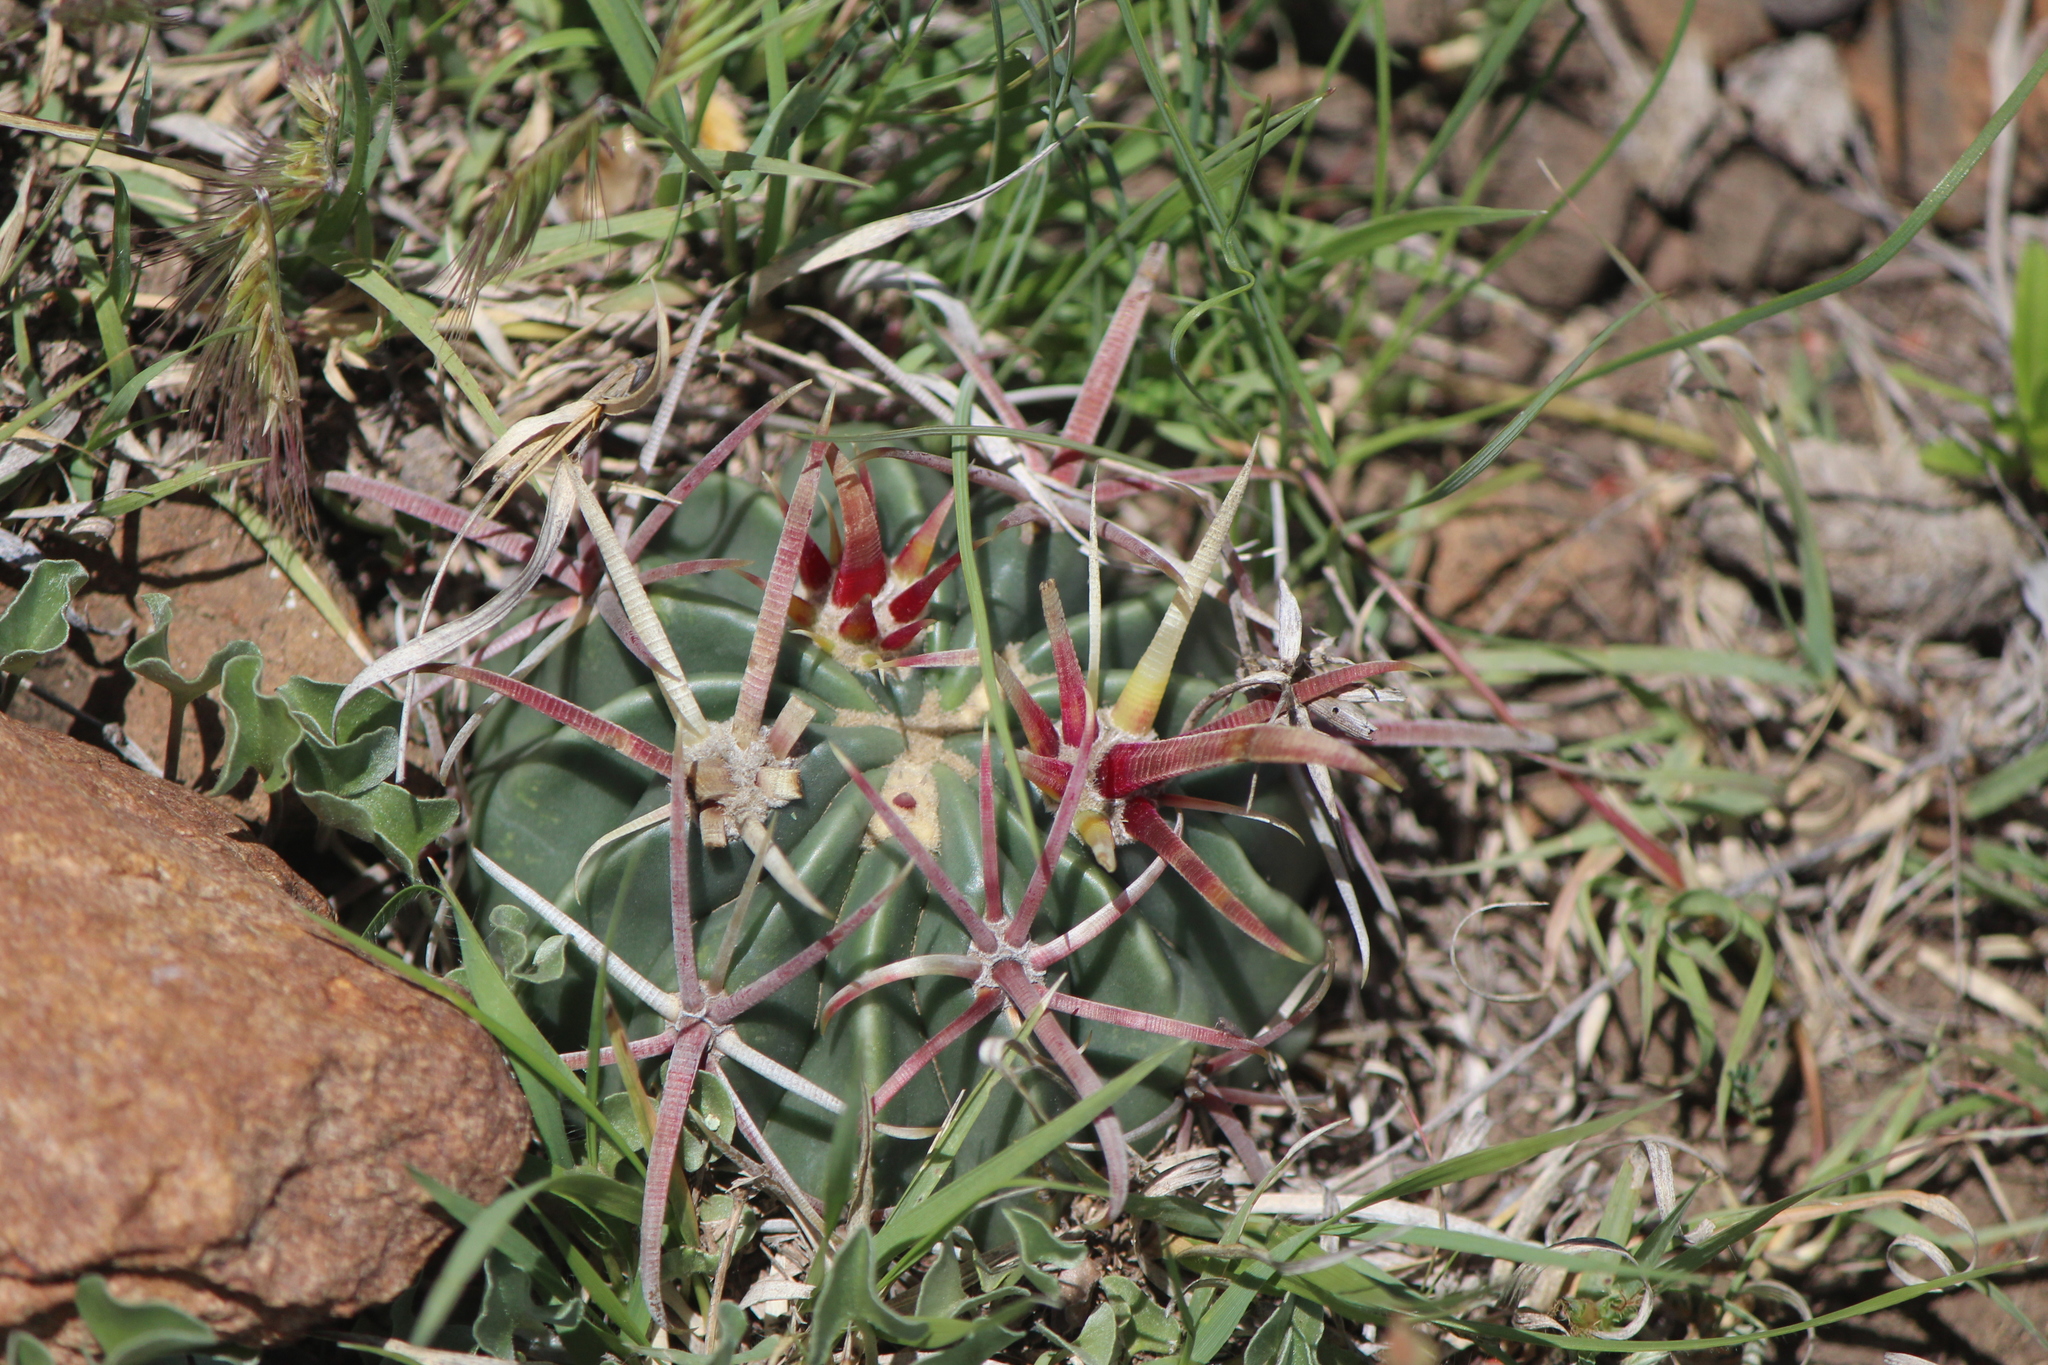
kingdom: Plantae
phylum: Tracheophyta
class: Magnoliopsida
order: Caryophyllales
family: Cactaceae
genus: Ferocactus
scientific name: Ferocactus latispinus
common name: Devil's-tongue cactus
